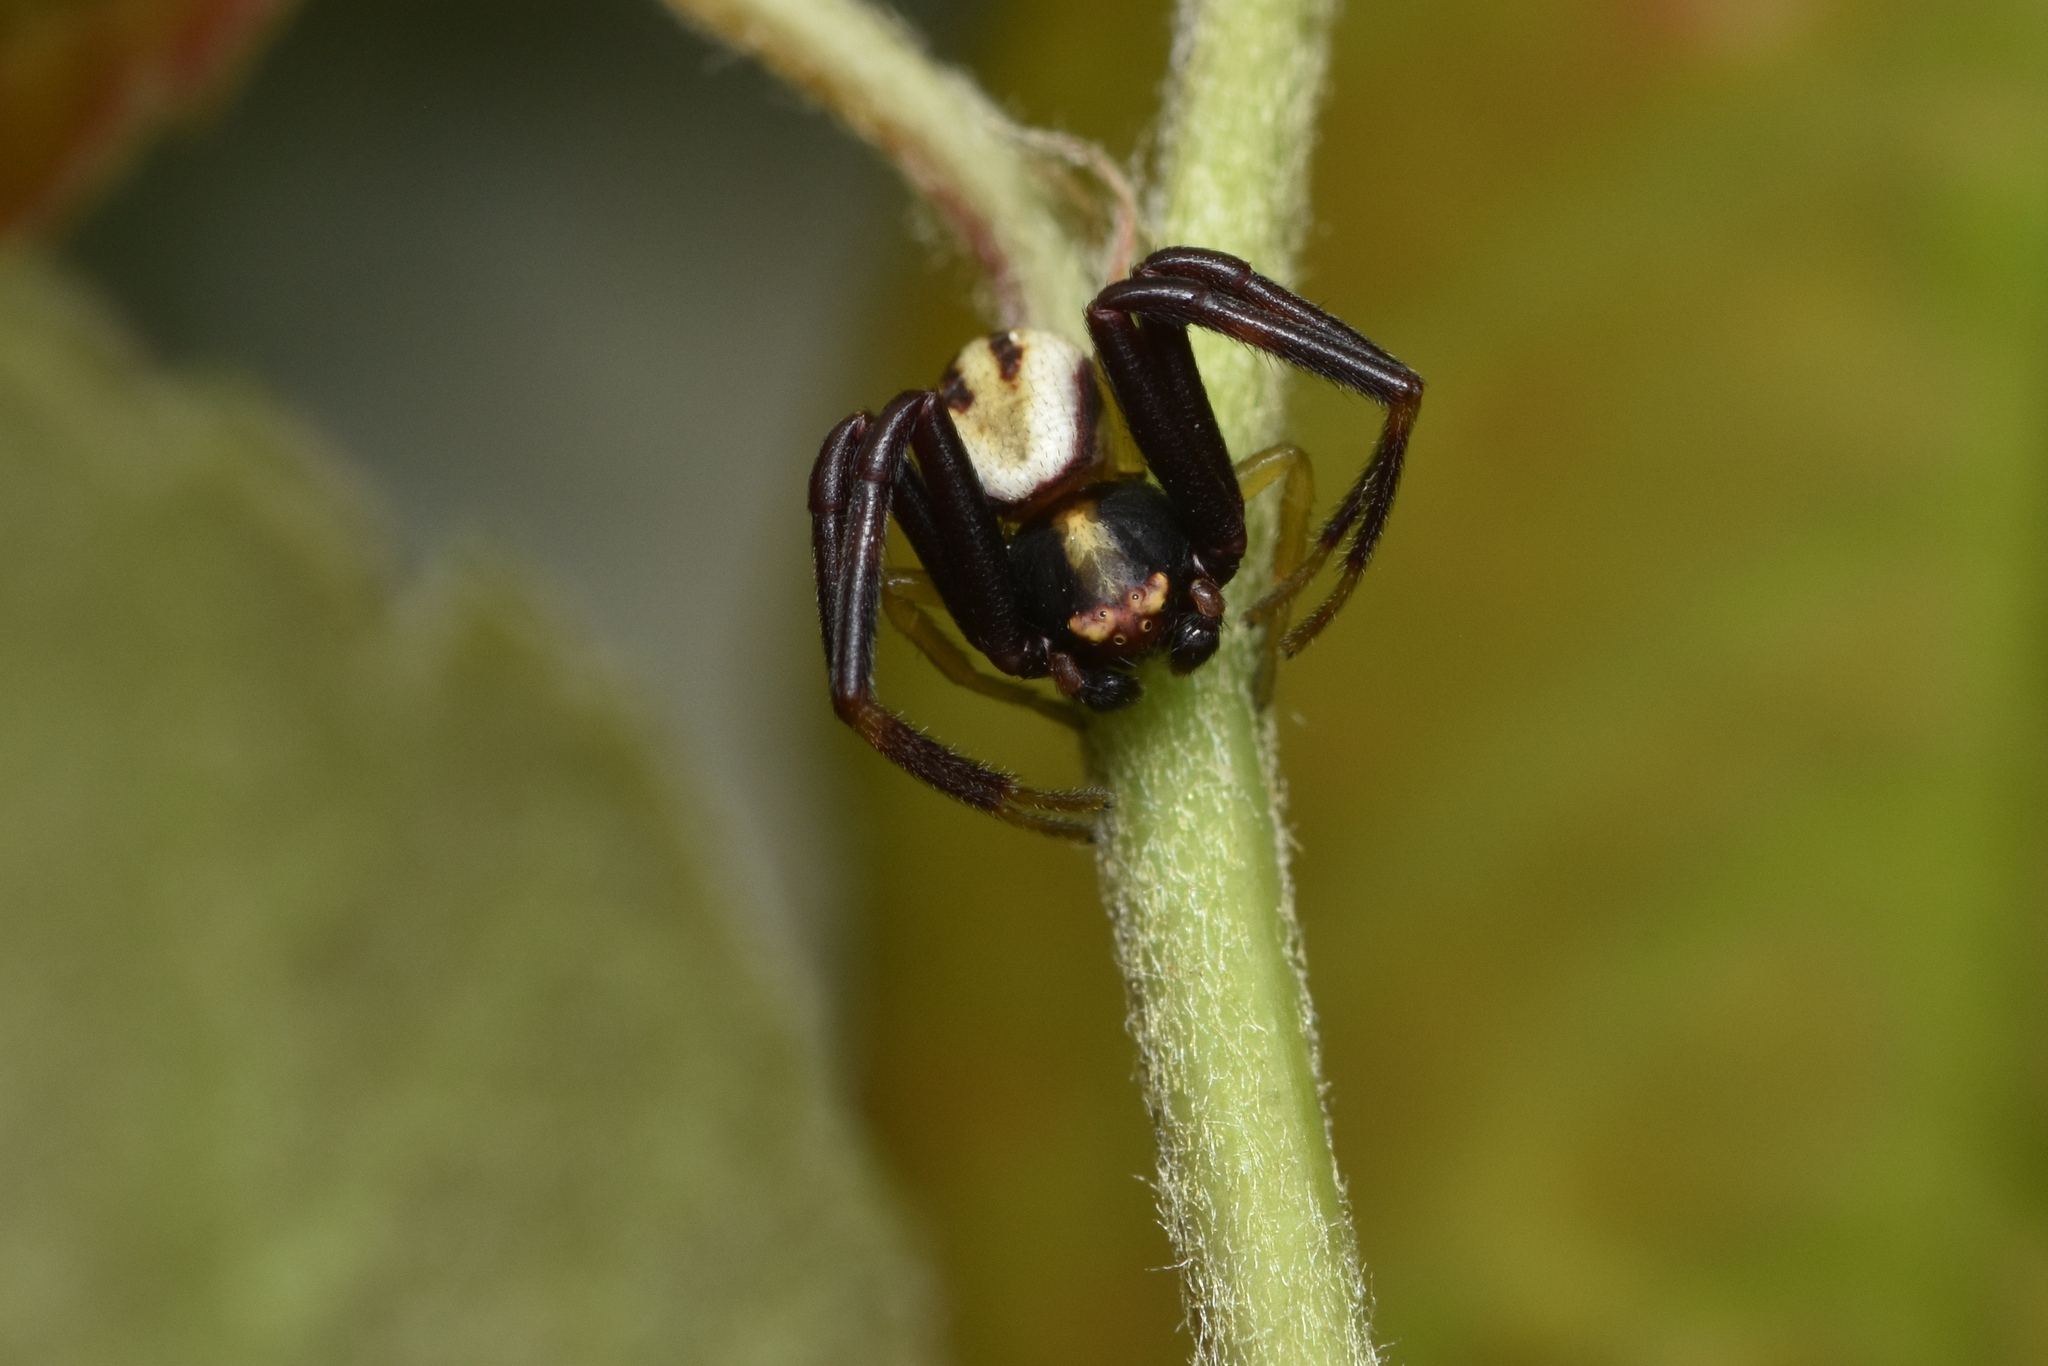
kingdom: Animalia
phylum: Arthropoda
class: Arachnida
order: Araneae
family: Thomisidae
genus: Misumena
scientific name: Misumena vatia
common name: Goldenrod crab spider
